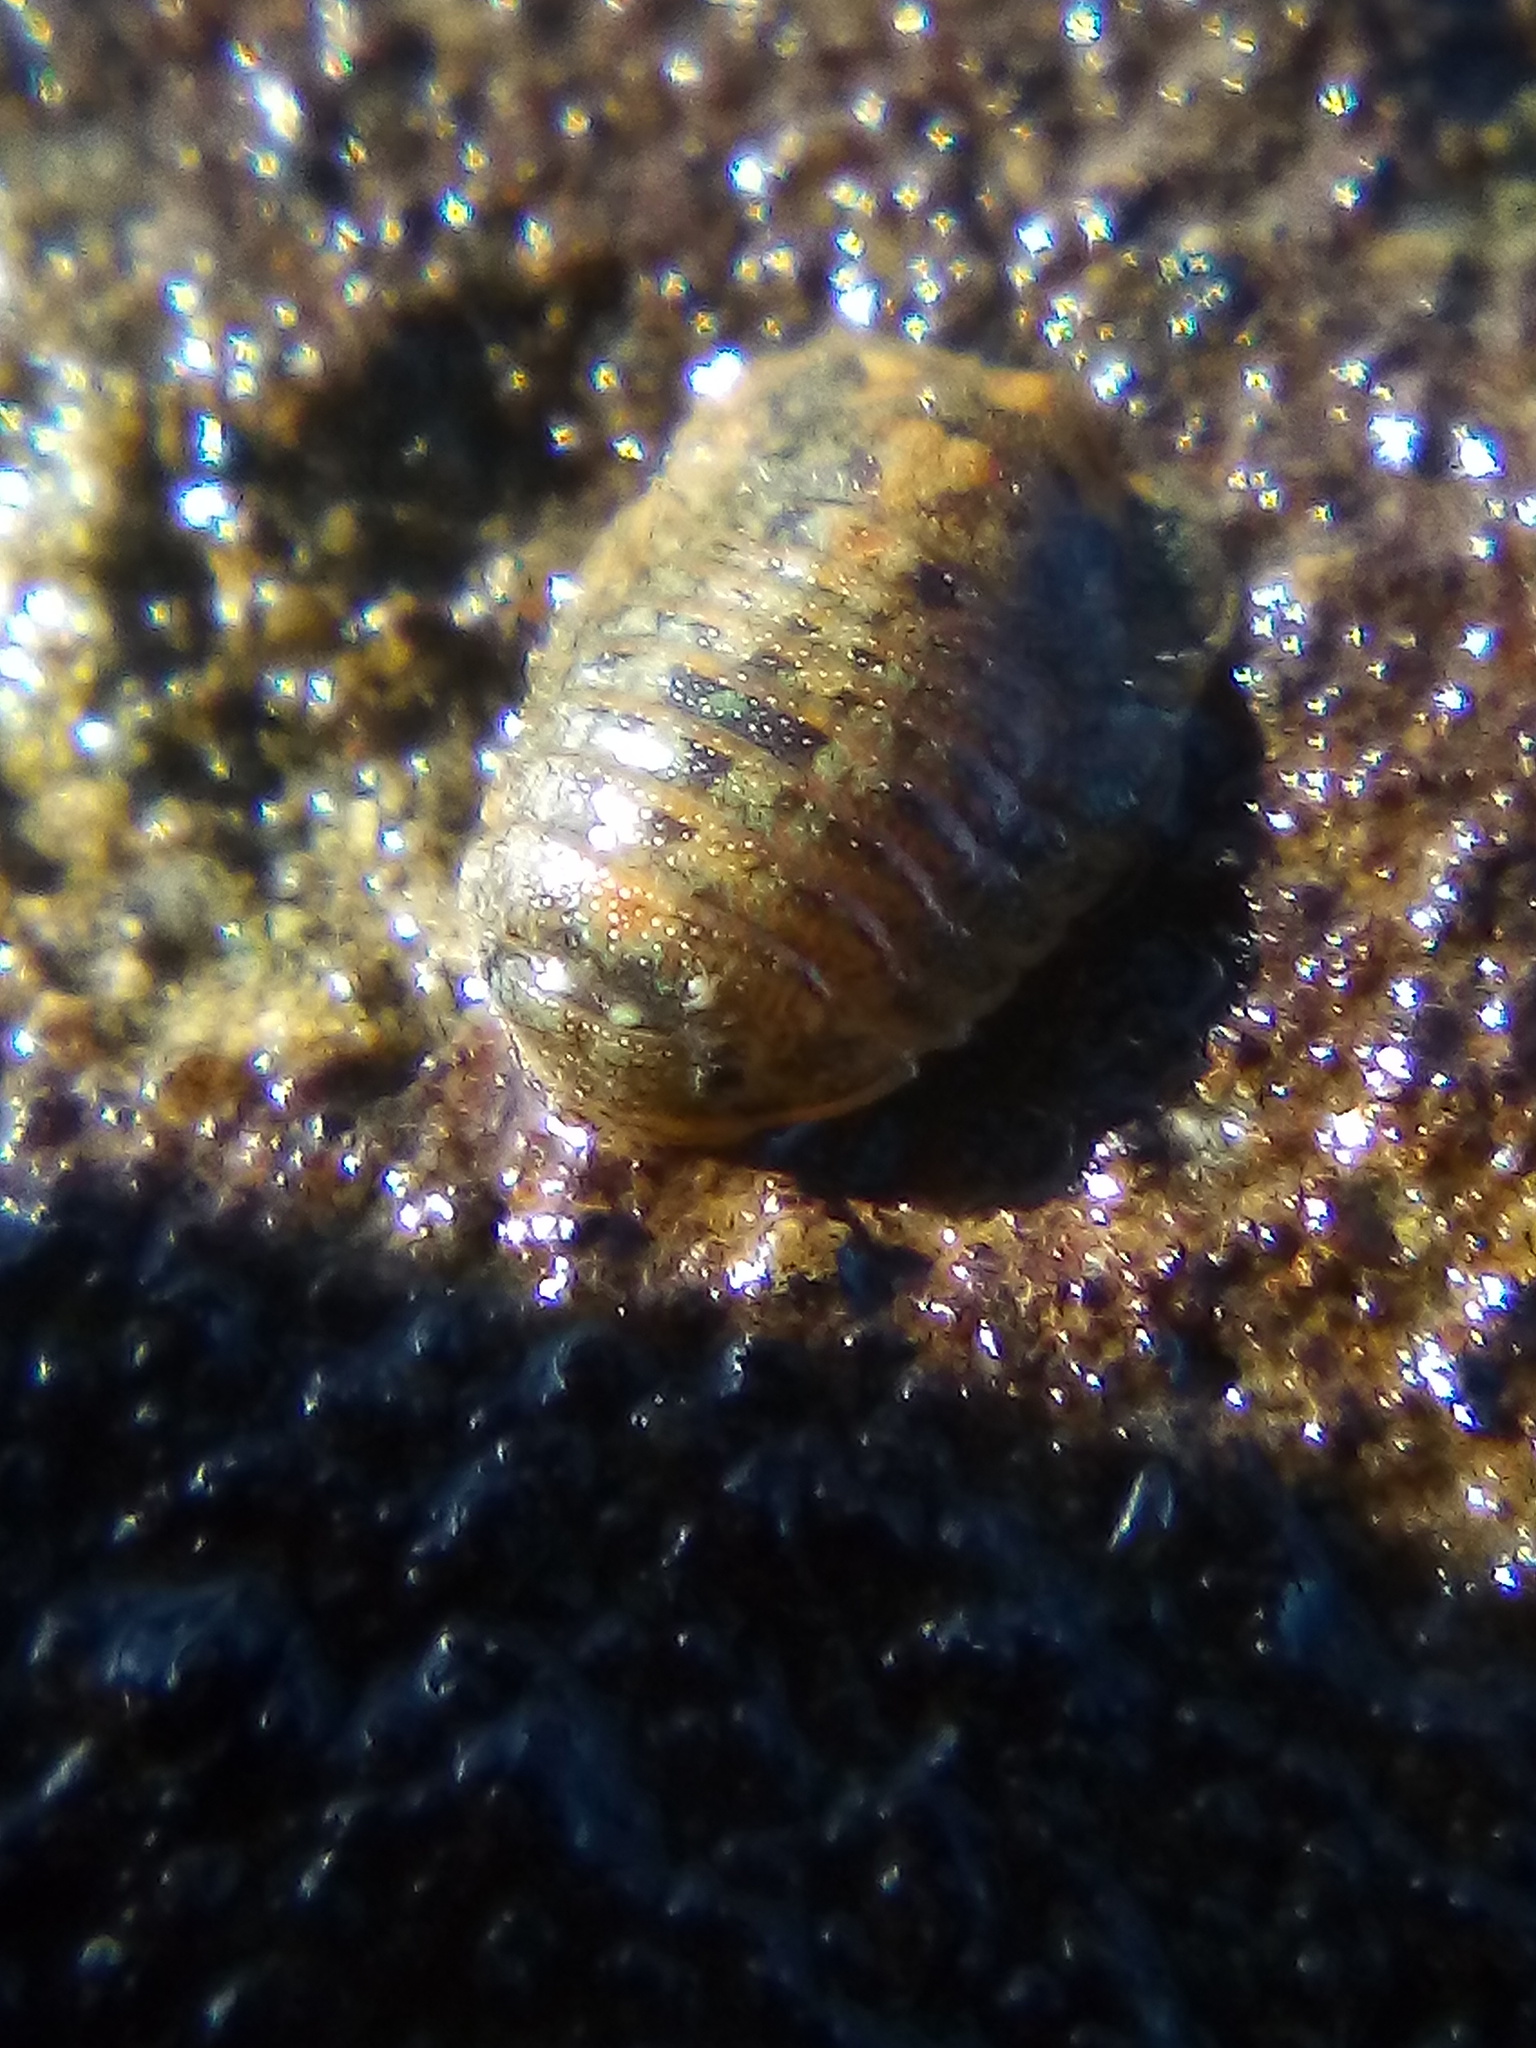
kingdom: Animalia
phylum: Arthropoda
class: Malacostraca
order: Isopoda
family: Sphaeromatidae
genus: Exosphaeroma
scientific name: Exosphaeroma planulum
